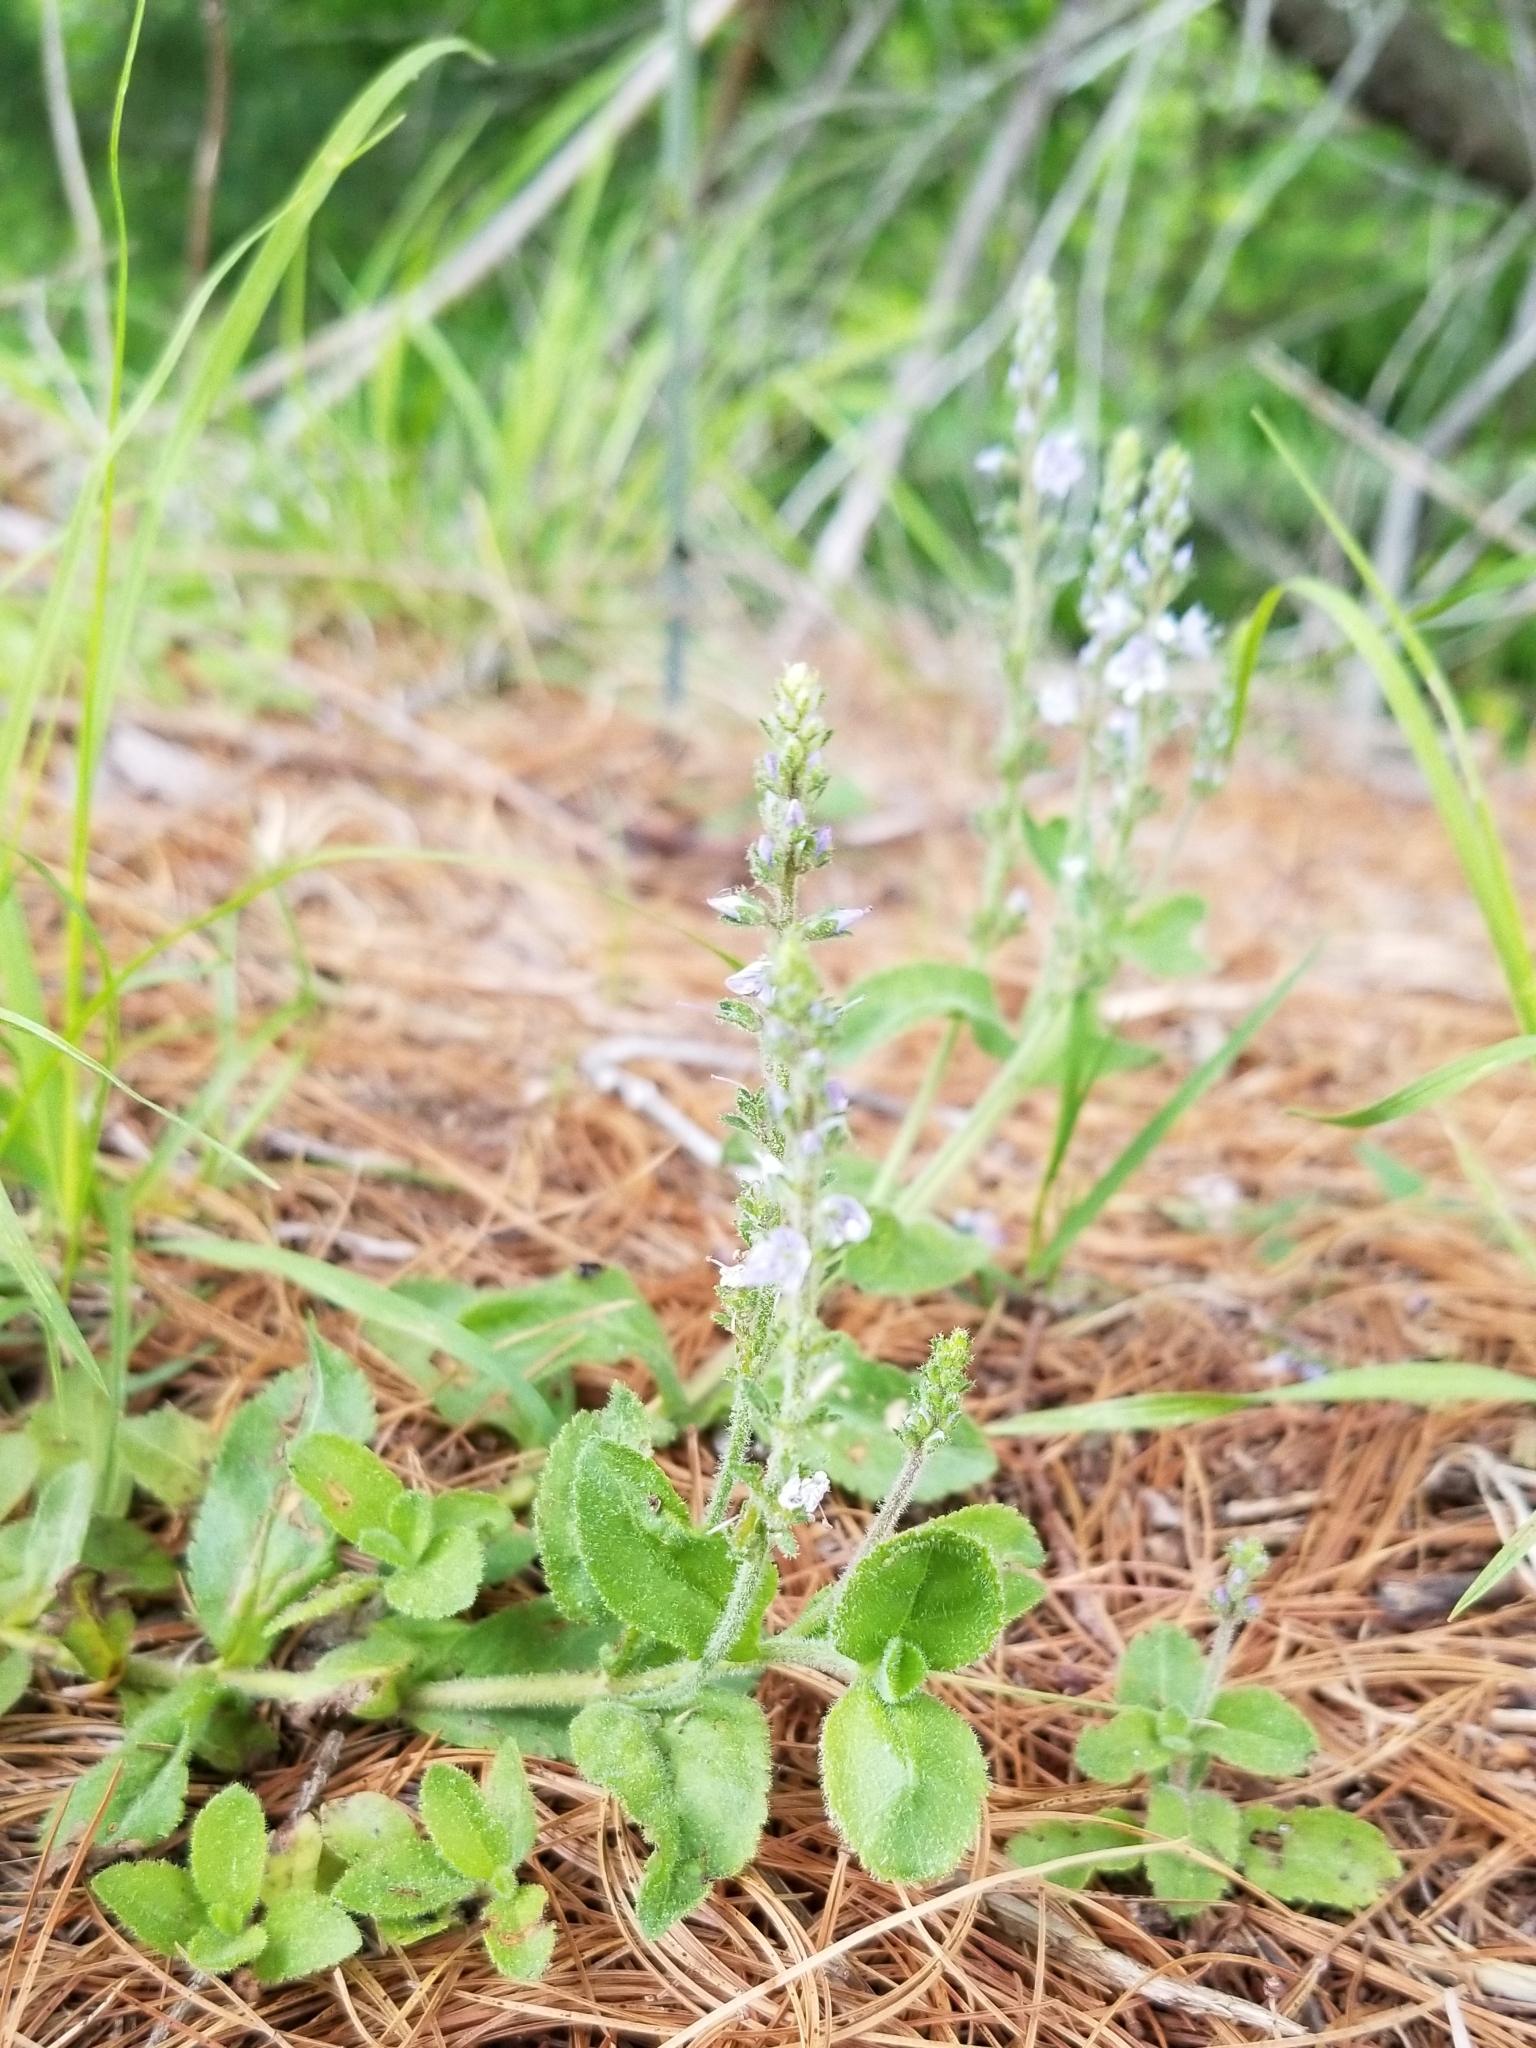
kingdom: Plantae
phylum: Tracheophyta
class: Magnoliopsida
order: Lamiales
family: Plantaginaceae
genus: Veronica
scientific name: Veronica officinalis
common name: Common speedwell
